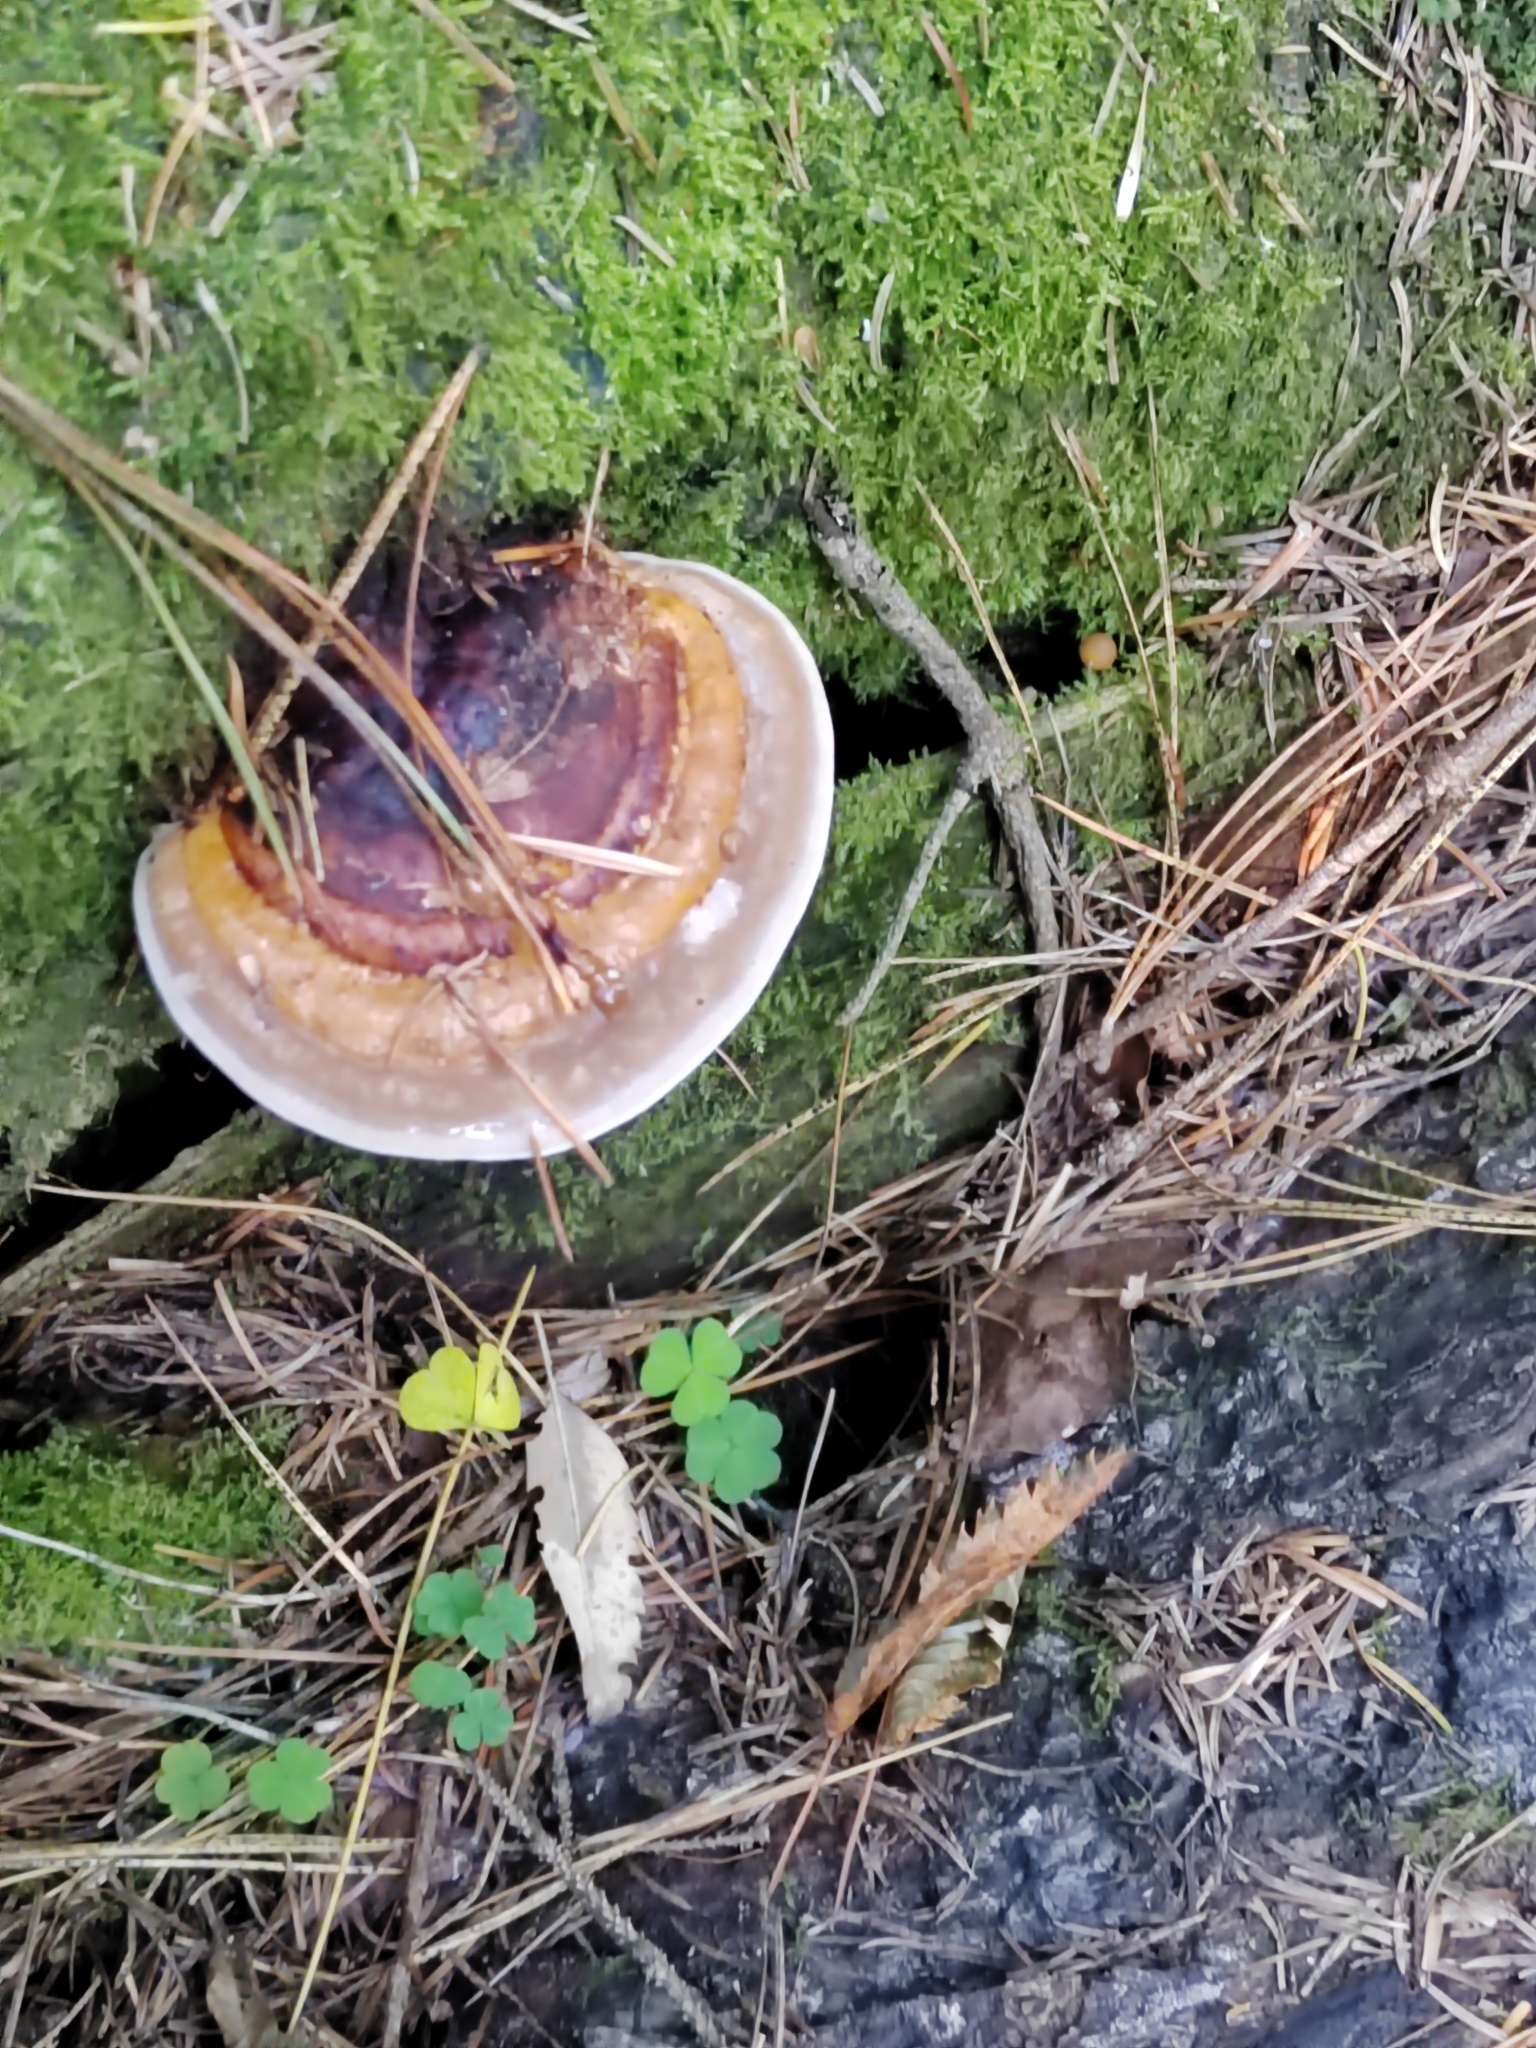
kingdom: Fungi
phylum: Basidiomycota
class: Agaricomycetes
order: Polyporales
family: Fomitopsidaceae
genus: Fomitopsis
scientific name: Fomitopsis pinicola
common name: Red-belted bracket
